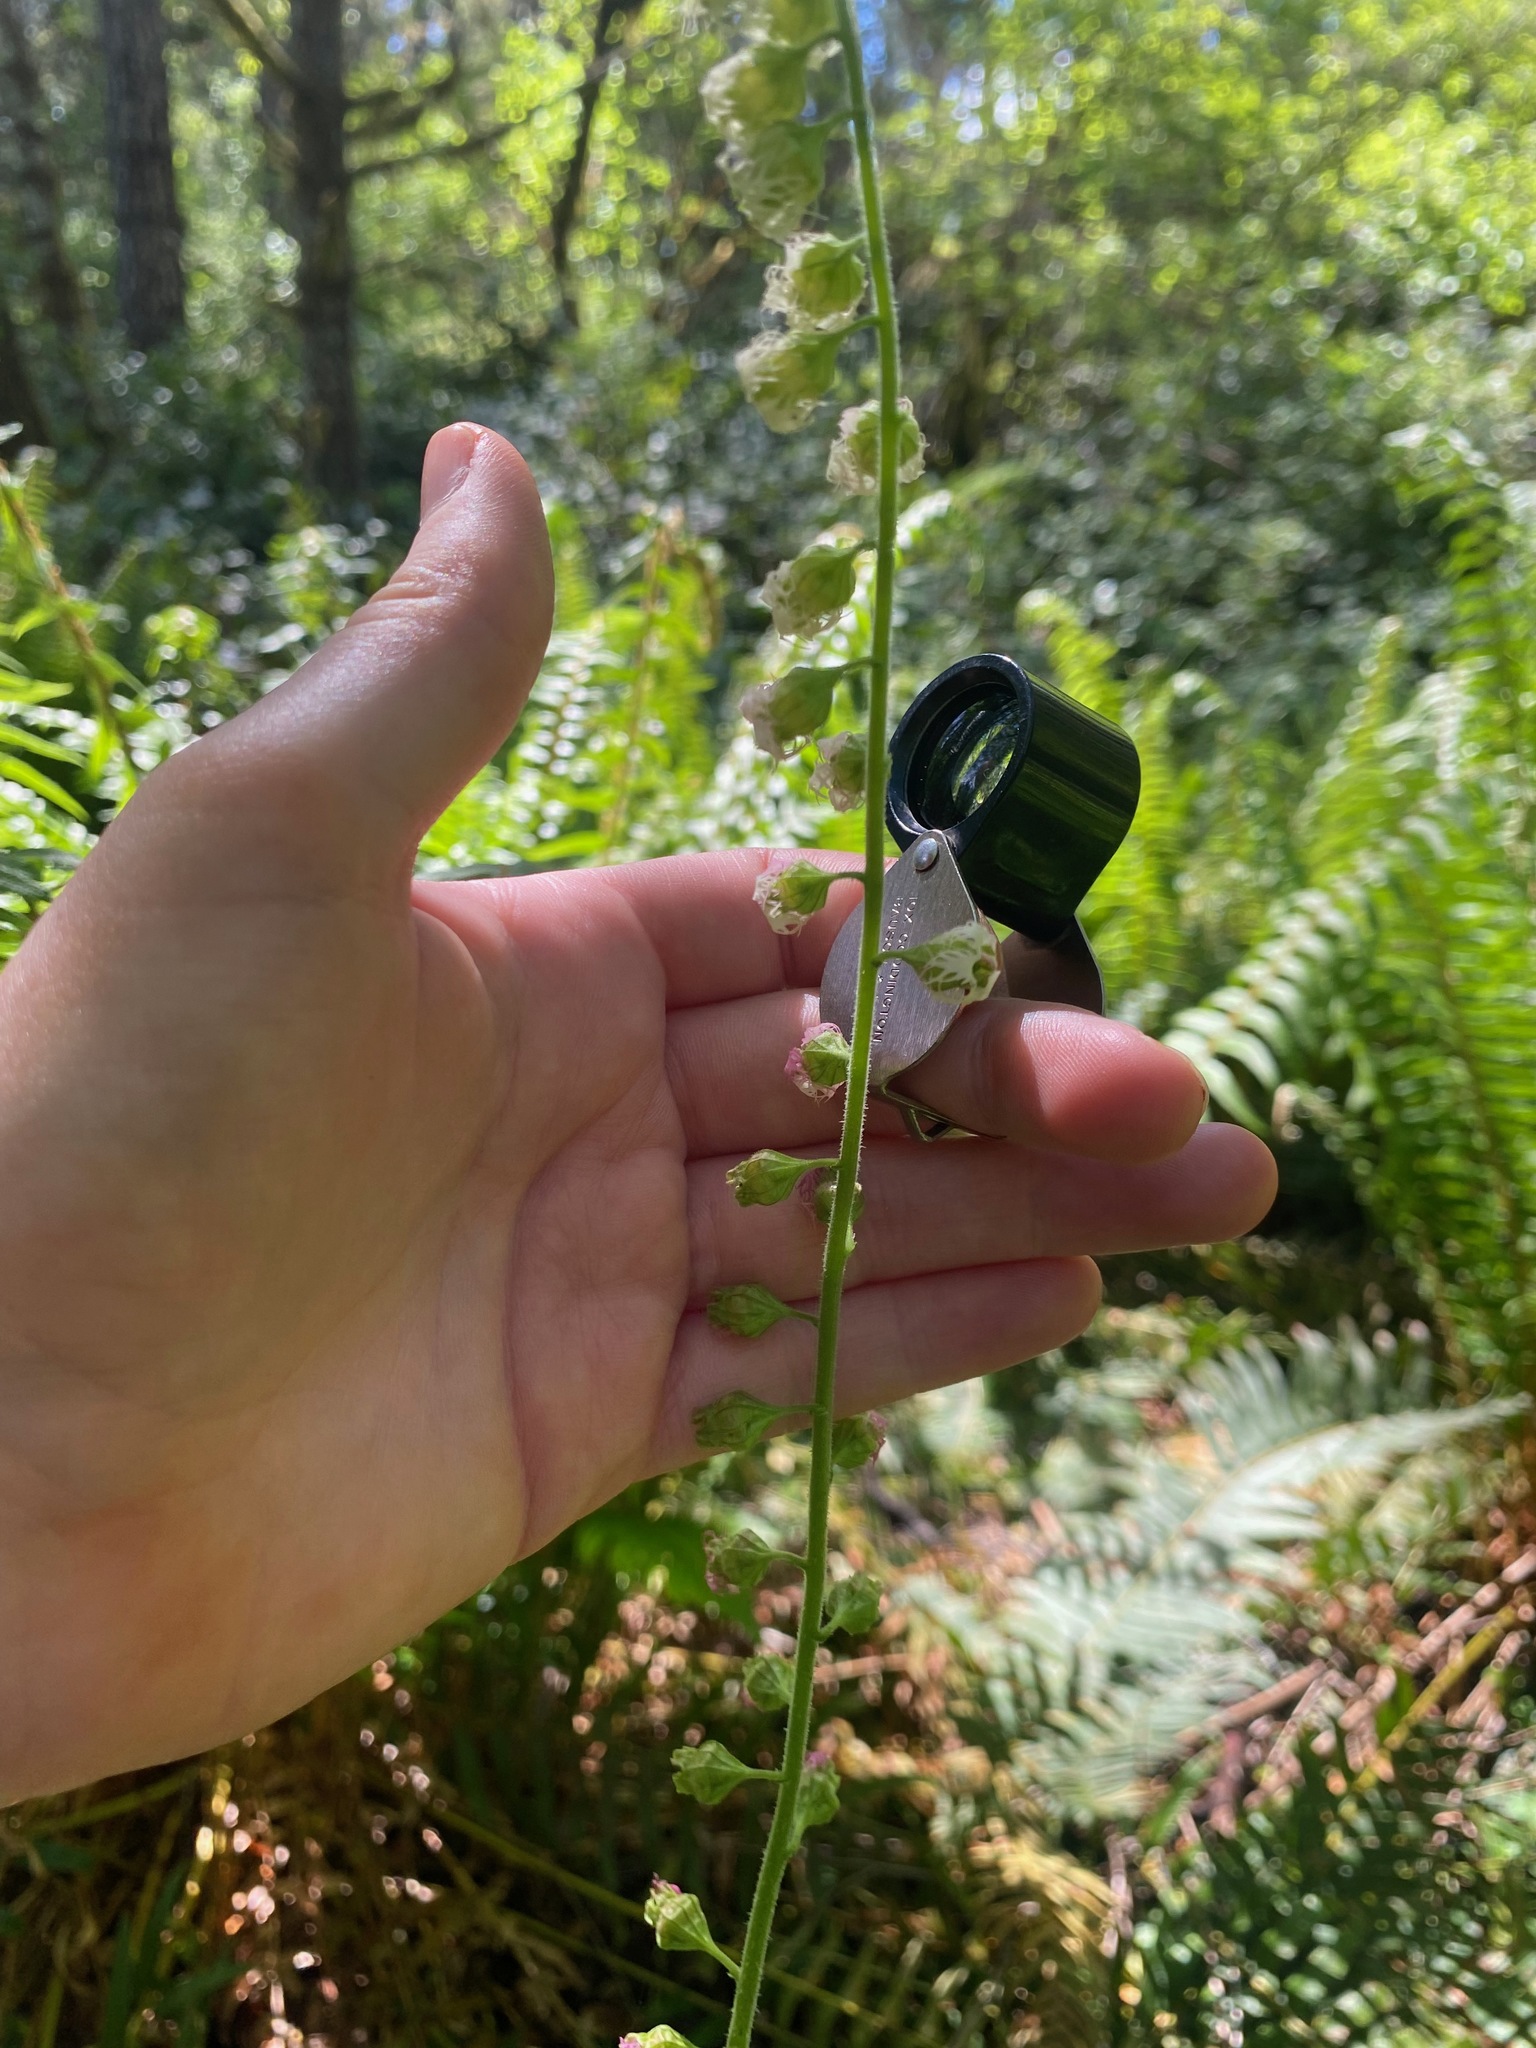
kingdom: Plantae
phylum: Tracheophyta
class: Magnoliopsida
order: Saxifragales
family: Saxifragaceae
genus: Tellima
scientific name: Tellima grandiflora
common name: Fringecups
